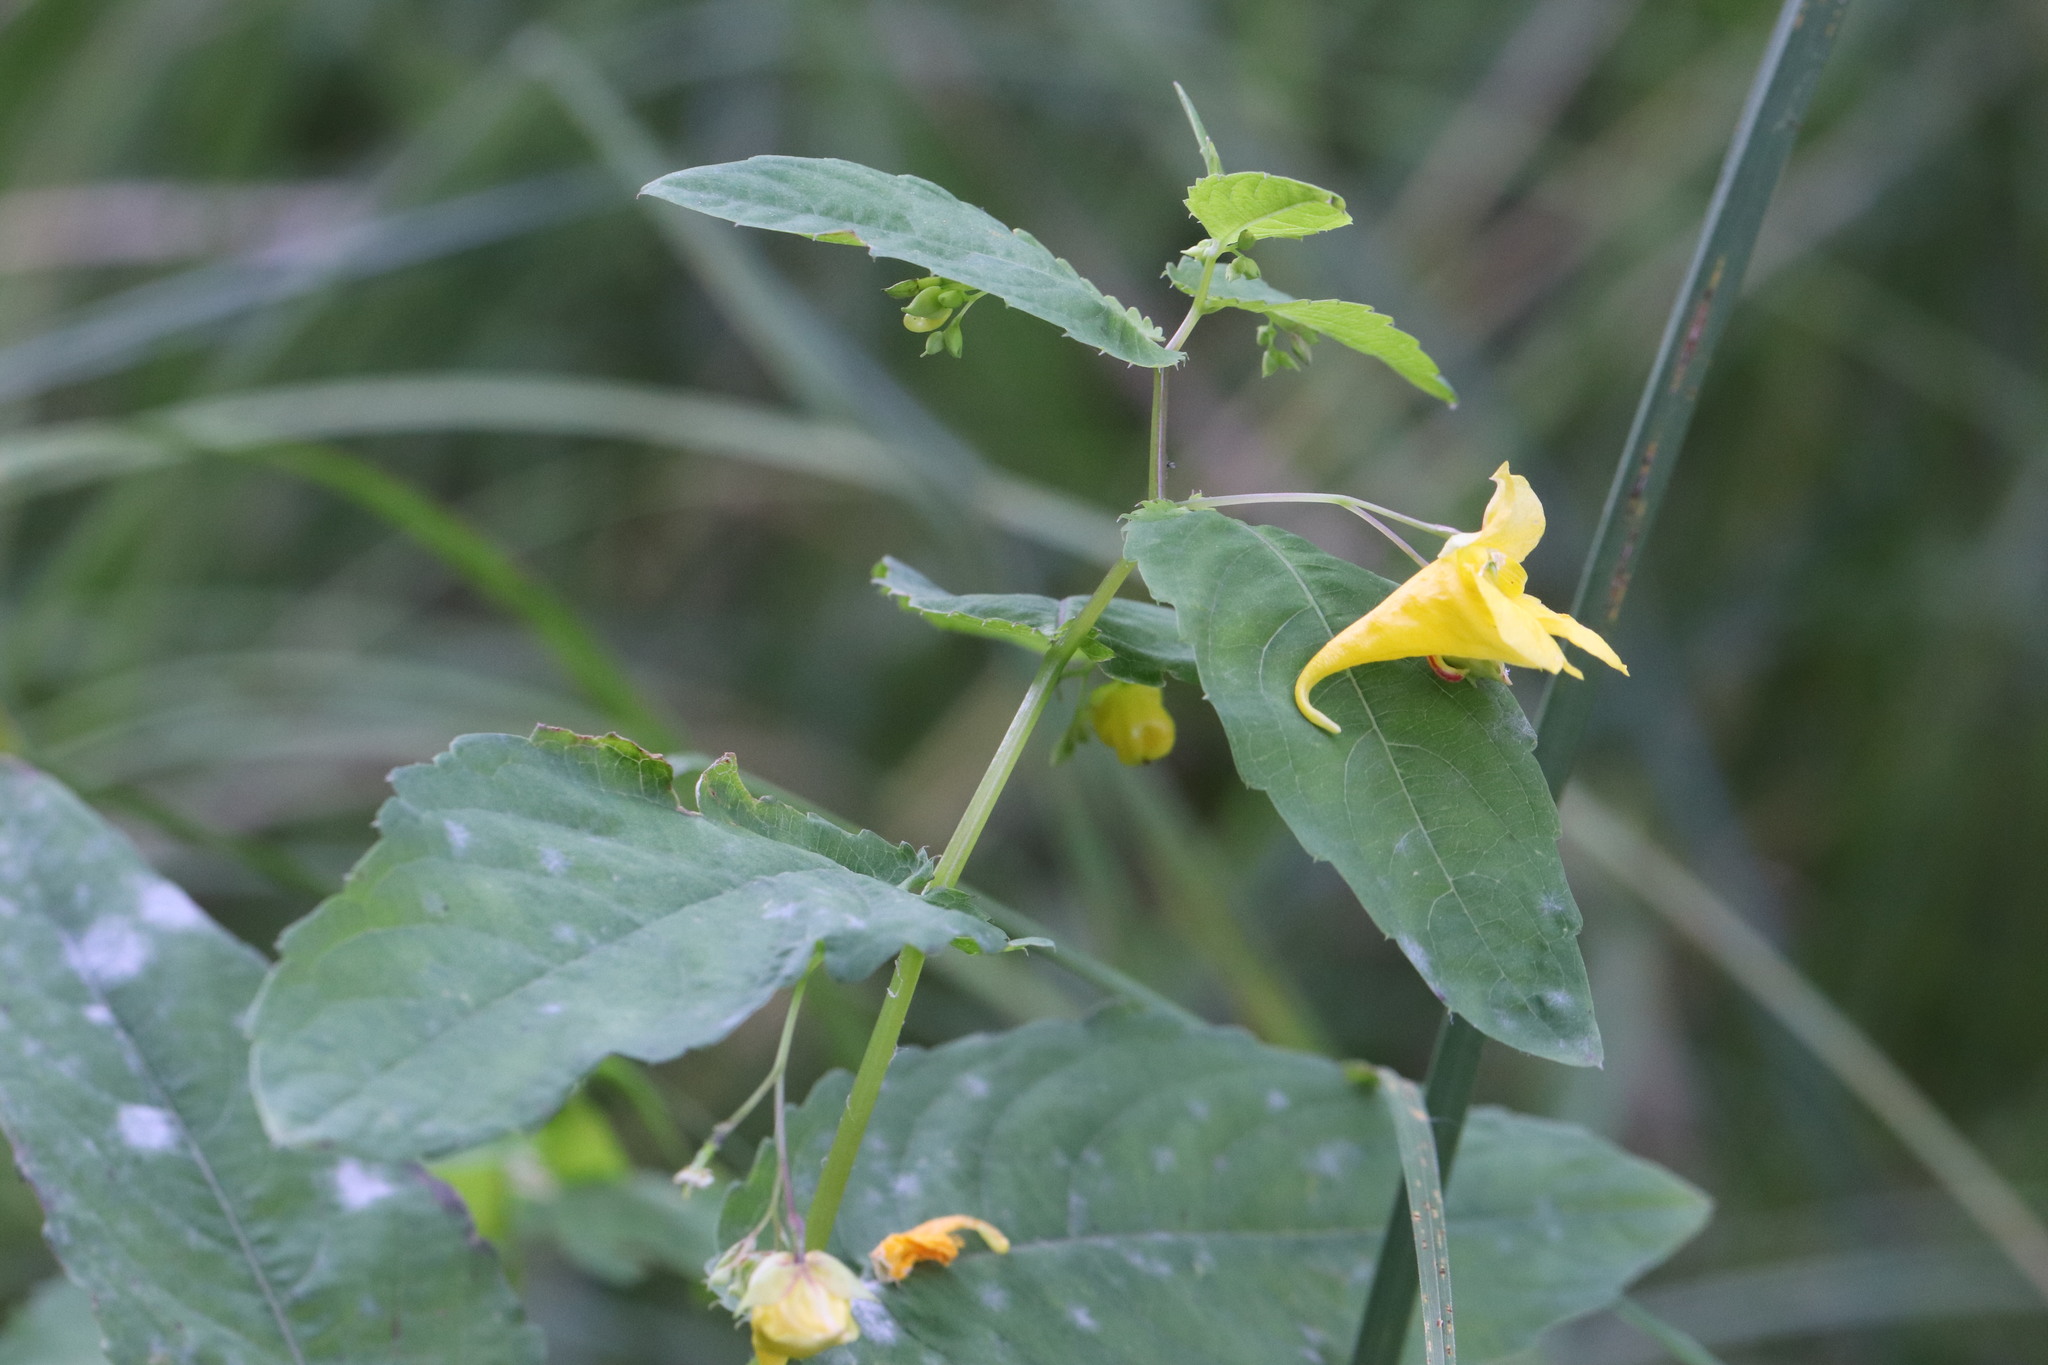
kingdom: Plantae
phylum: Tracheophyta
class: Magnoliopsida
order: Ericales
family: Balsaminaceae
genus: Impatiens
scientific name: Impatiens noli-tangere
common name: Touch-me-not balsam
